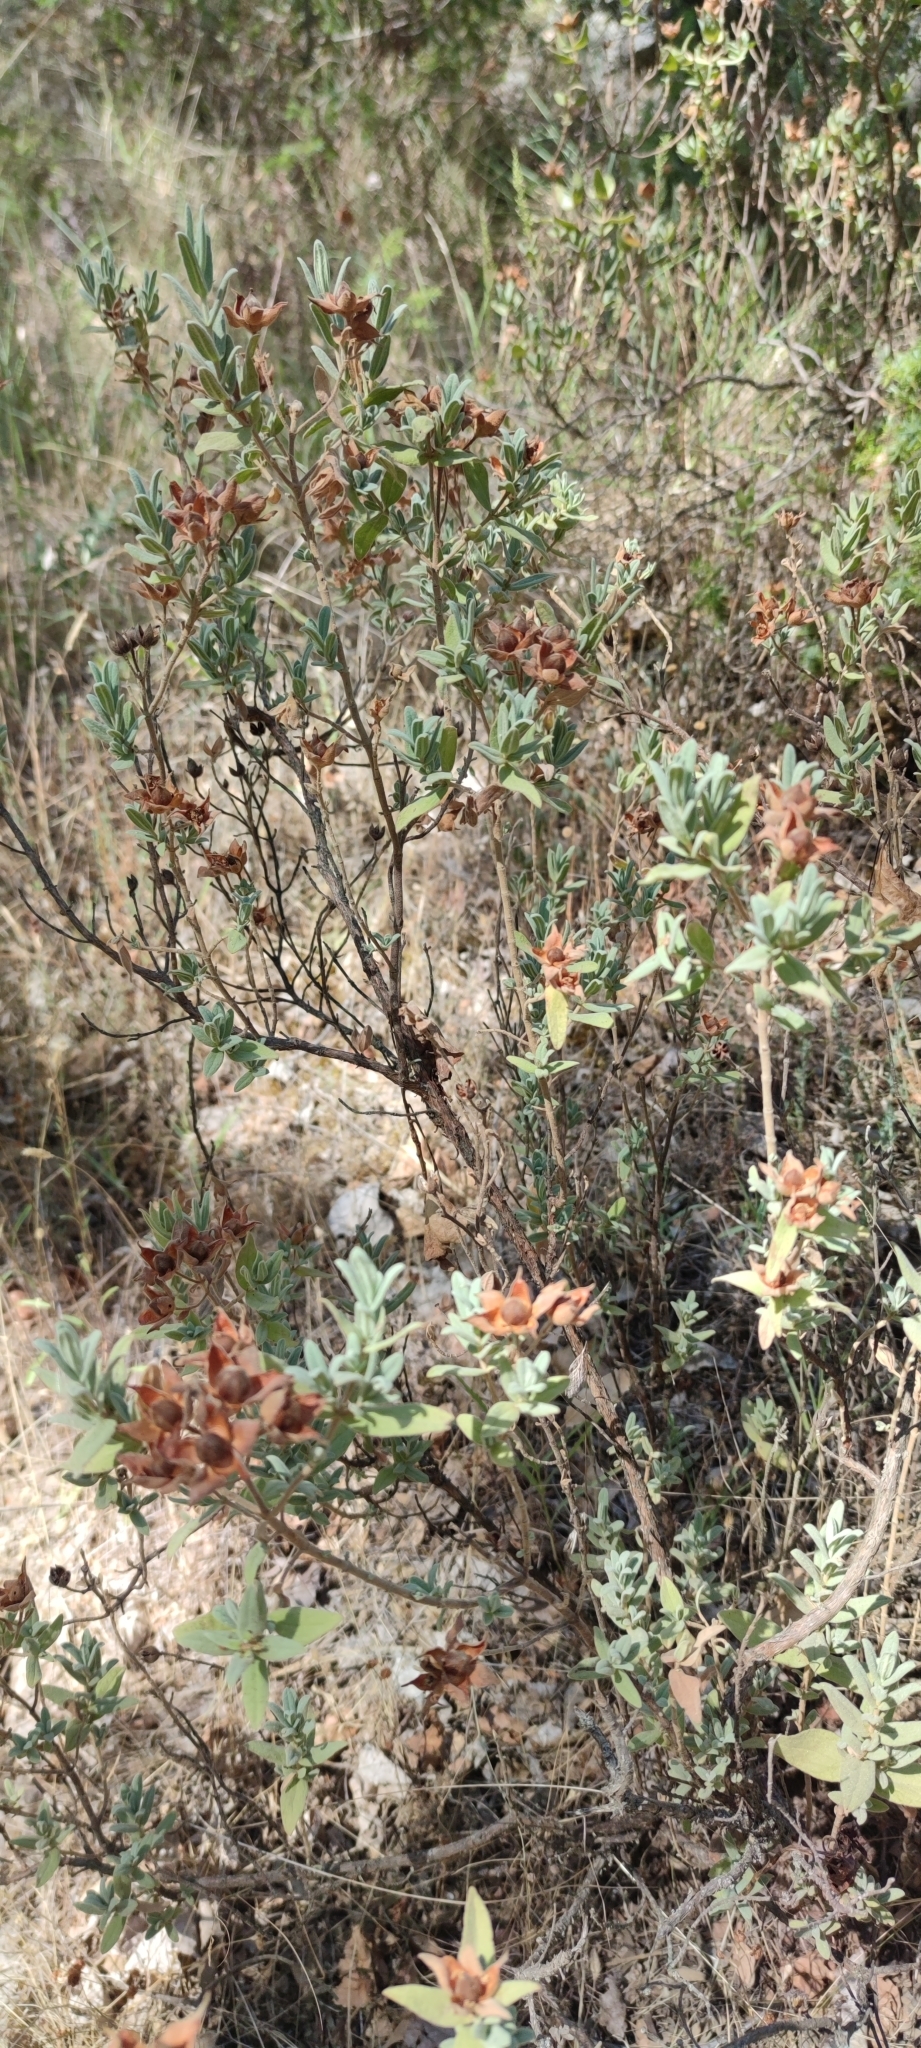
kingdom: Plantae
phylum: Tracheophyta
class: Magnoliopsida
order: Malvales
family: Cistaceae
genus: Cistus
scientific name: Cistus albidus
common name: White-leaf rock-rose
